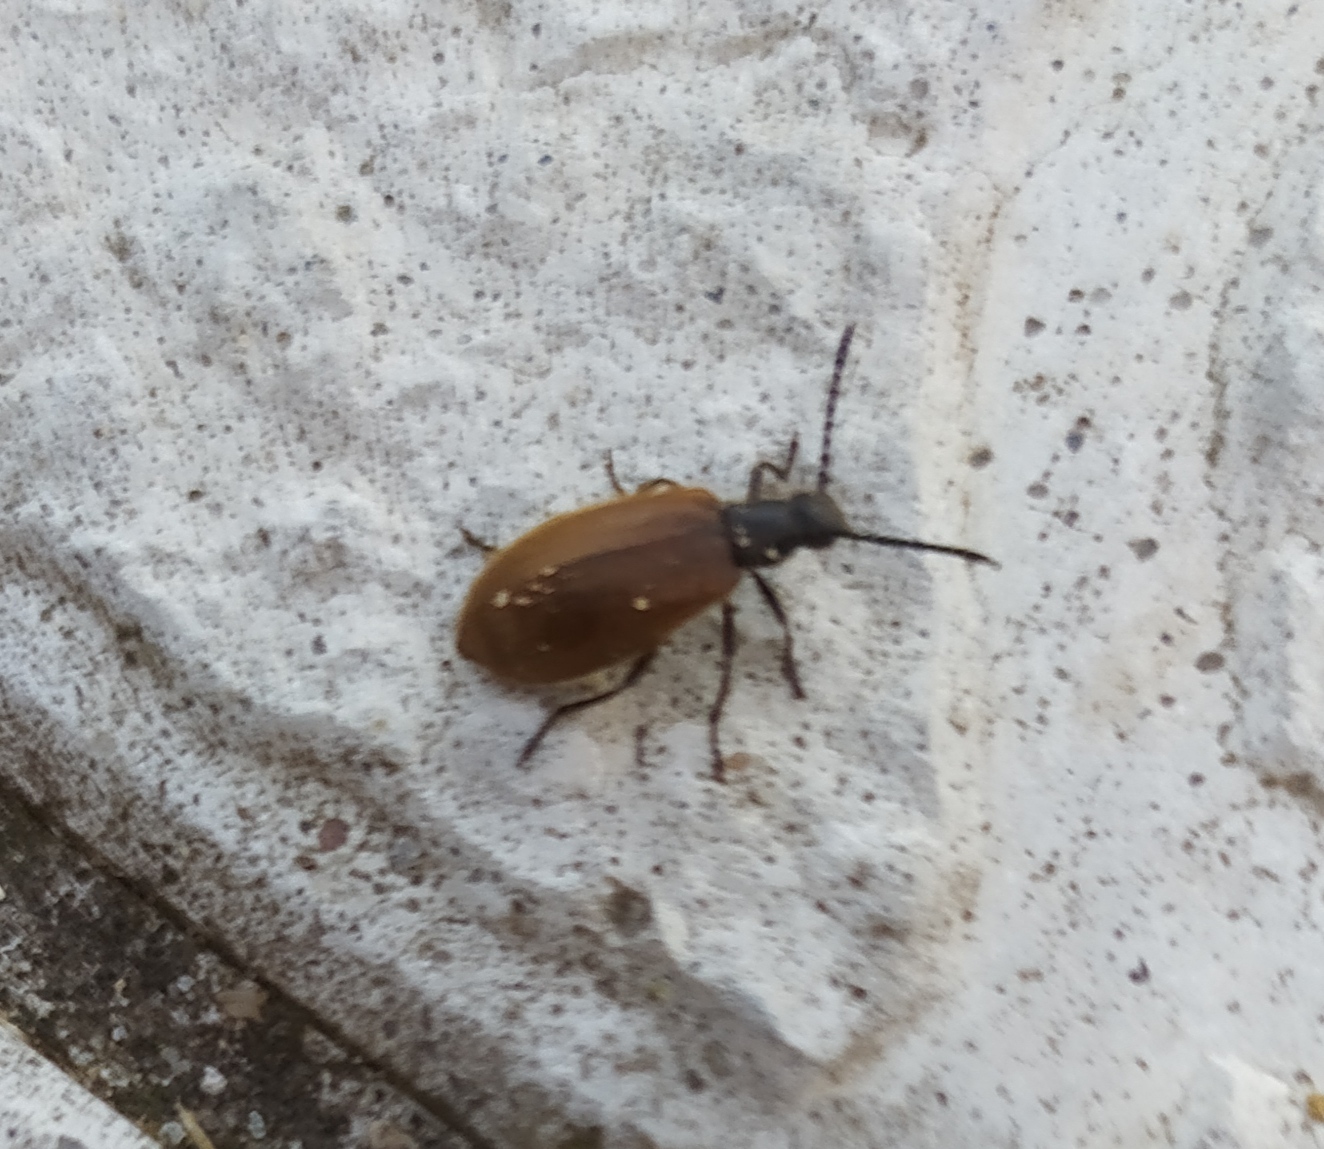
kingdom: Animalia
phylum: Arthropoda
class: Insecta
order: Coleoptera
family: Tenebrionidae
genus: Lagria
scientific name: Lagria hirta
